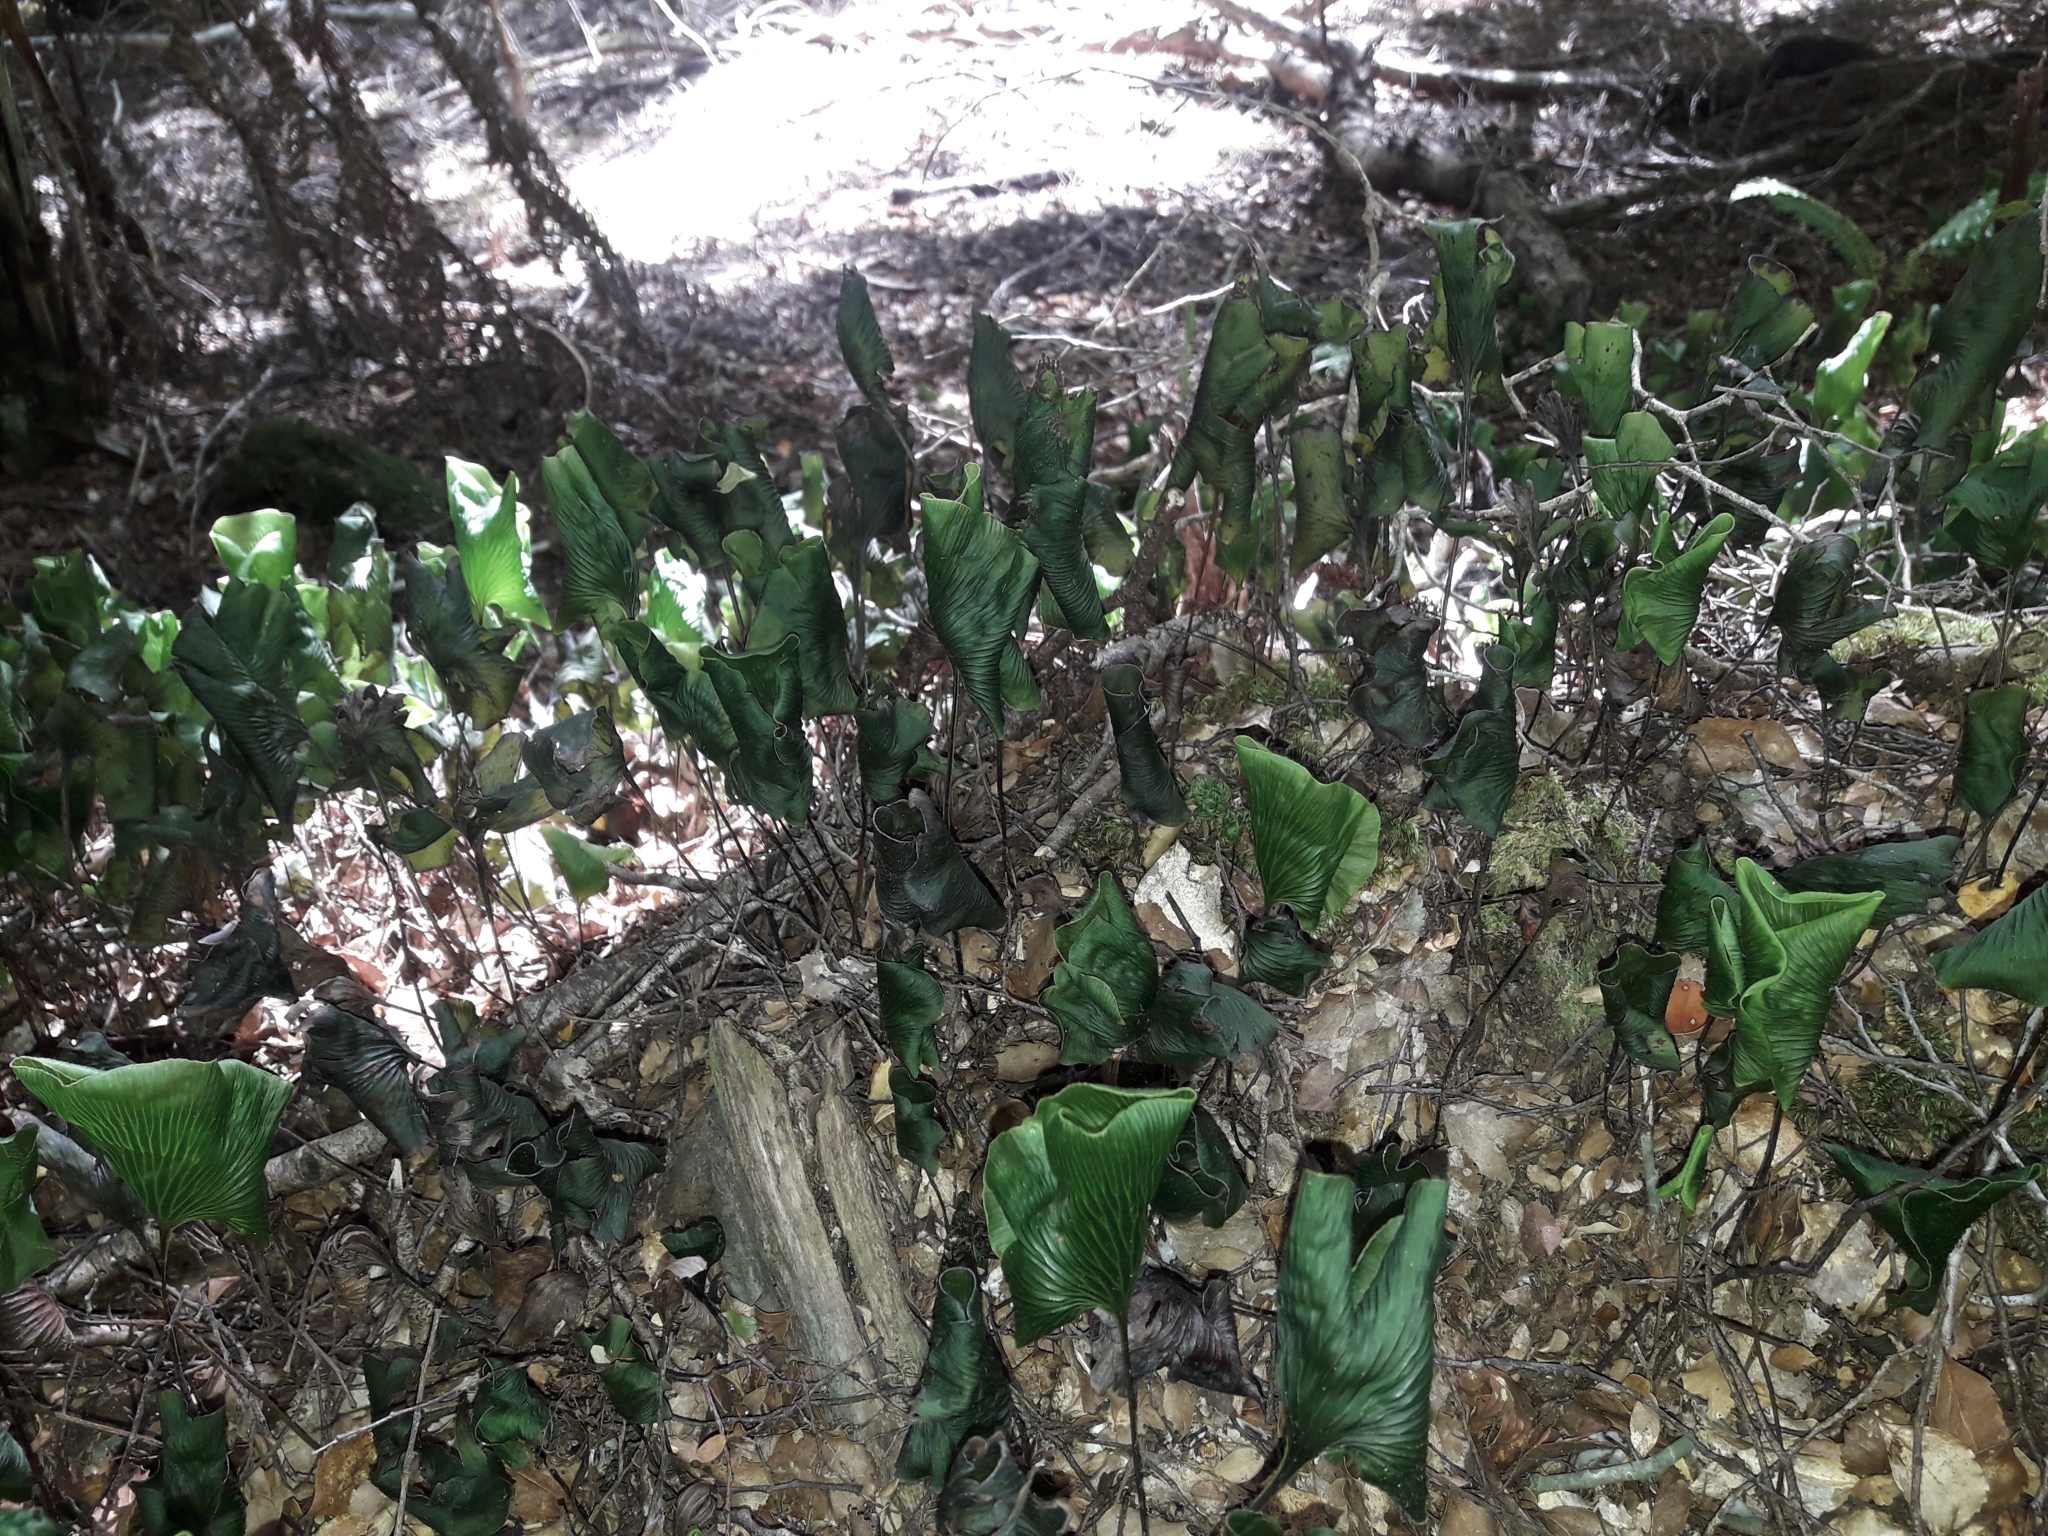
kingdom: Plantae
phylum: Tracheophyta
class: Polypodiopsida
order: Hymenophyllales
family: Hymenophyllaceae
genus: Hymenophyllum
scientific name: Hymenophyllum nephrophyllum
